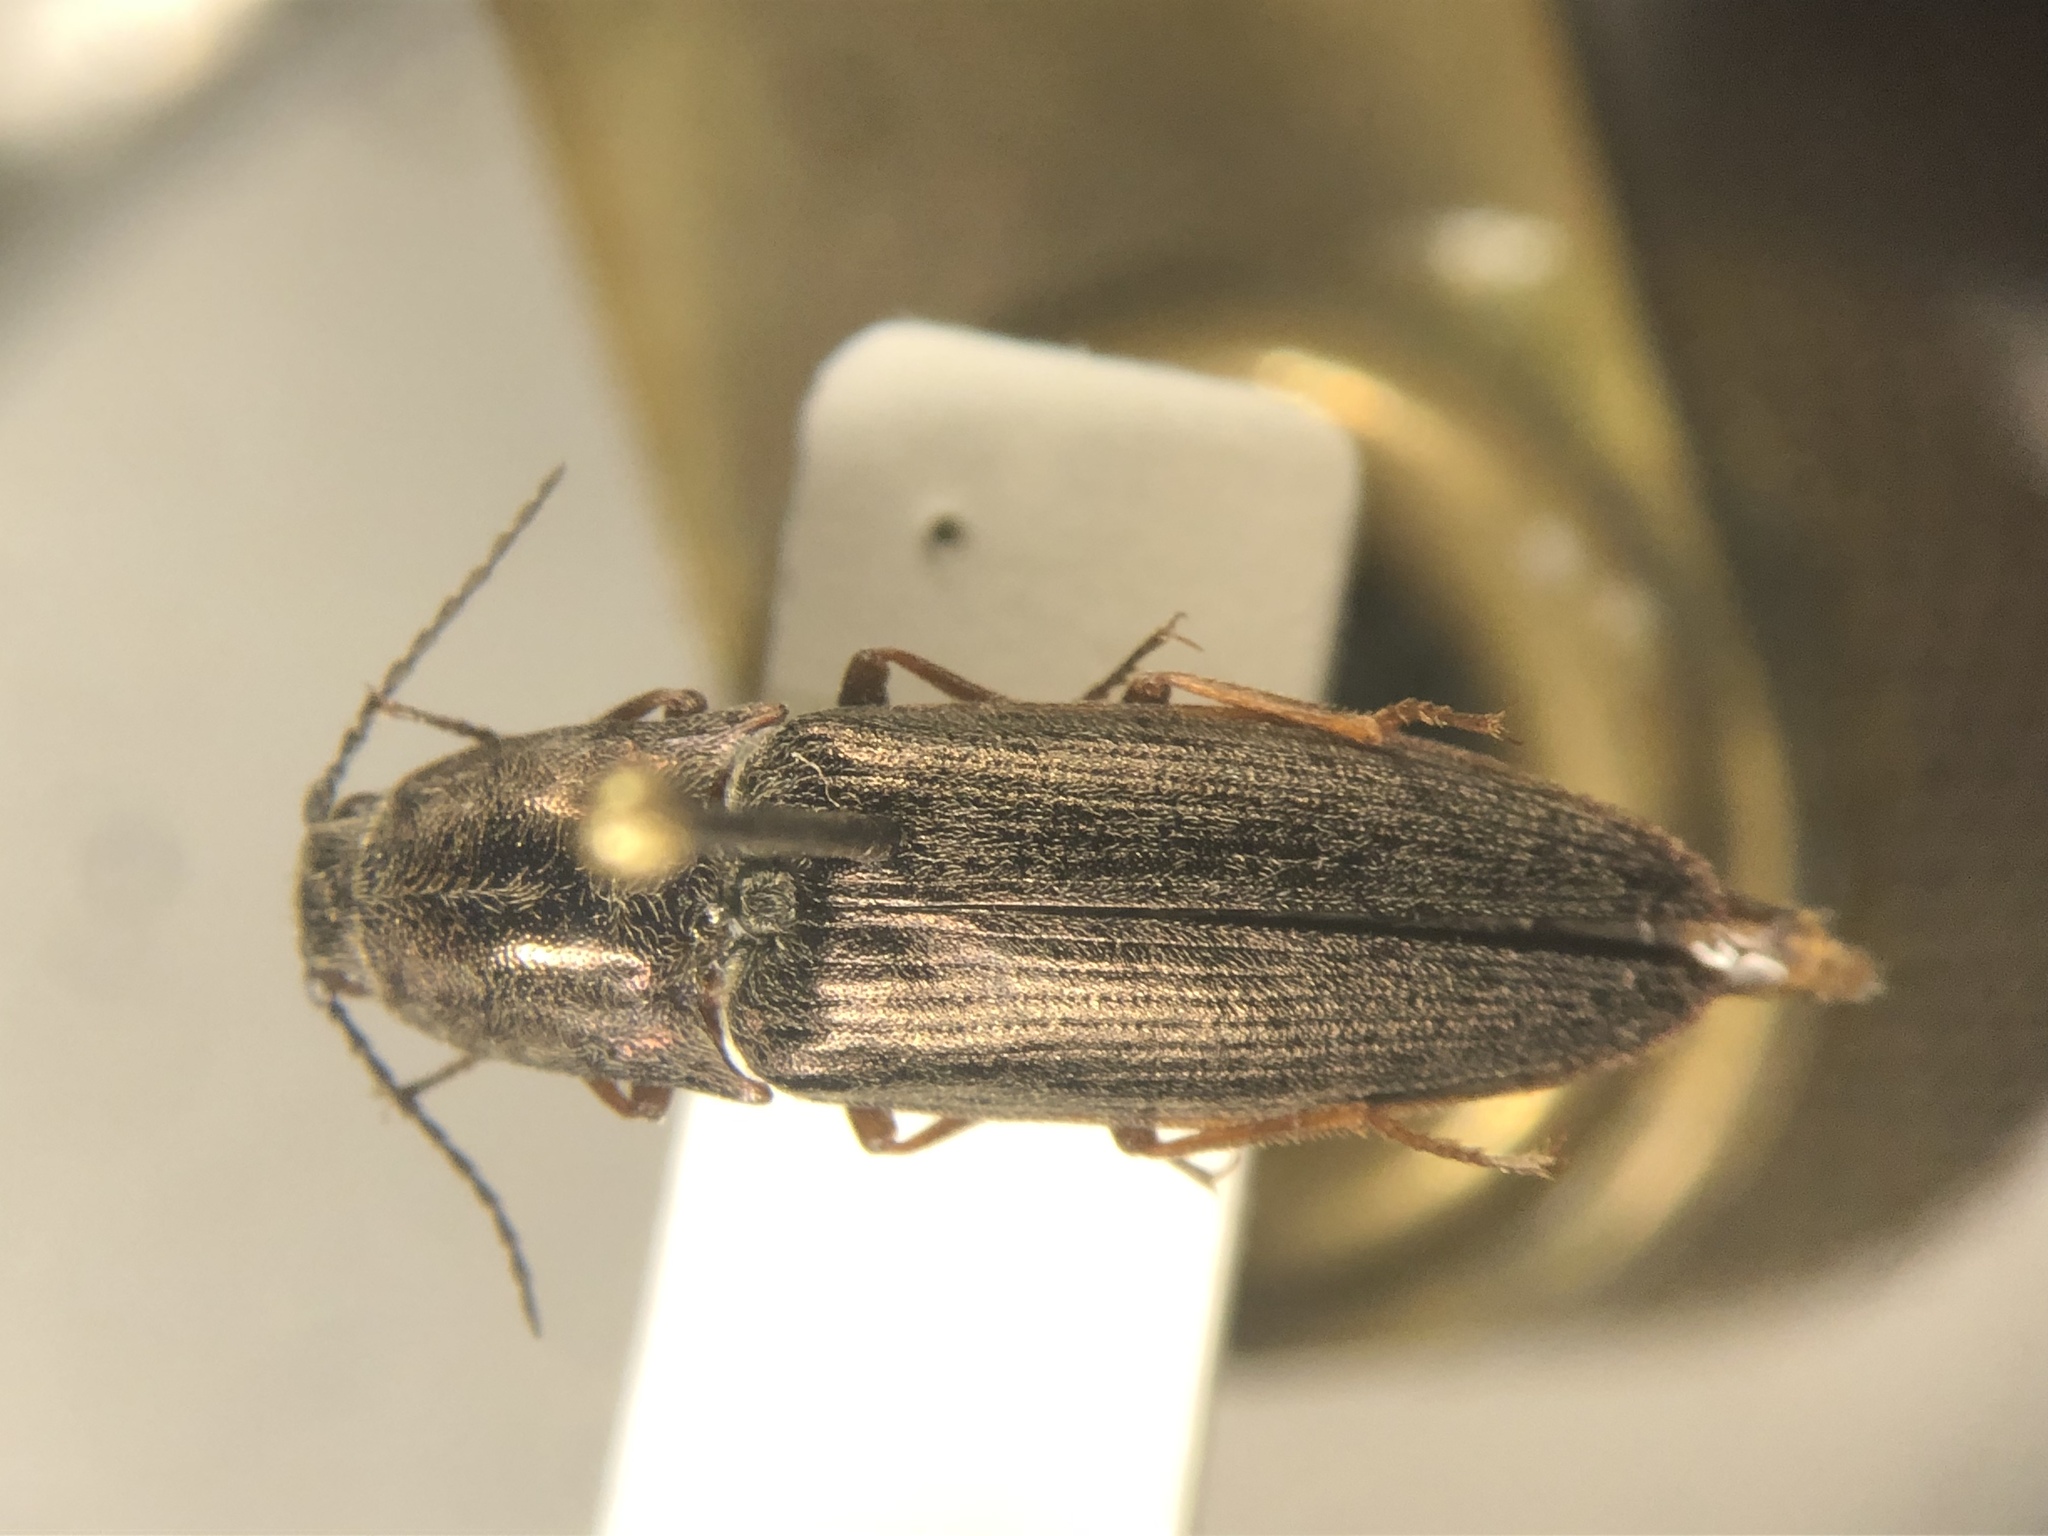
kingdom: Animalia
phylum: Arthropoda
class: Insecta
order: Coleoptera
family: Elateridae
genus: Actenicerus
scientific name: Actenicerus cuprascens
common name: Marsh click beetle
